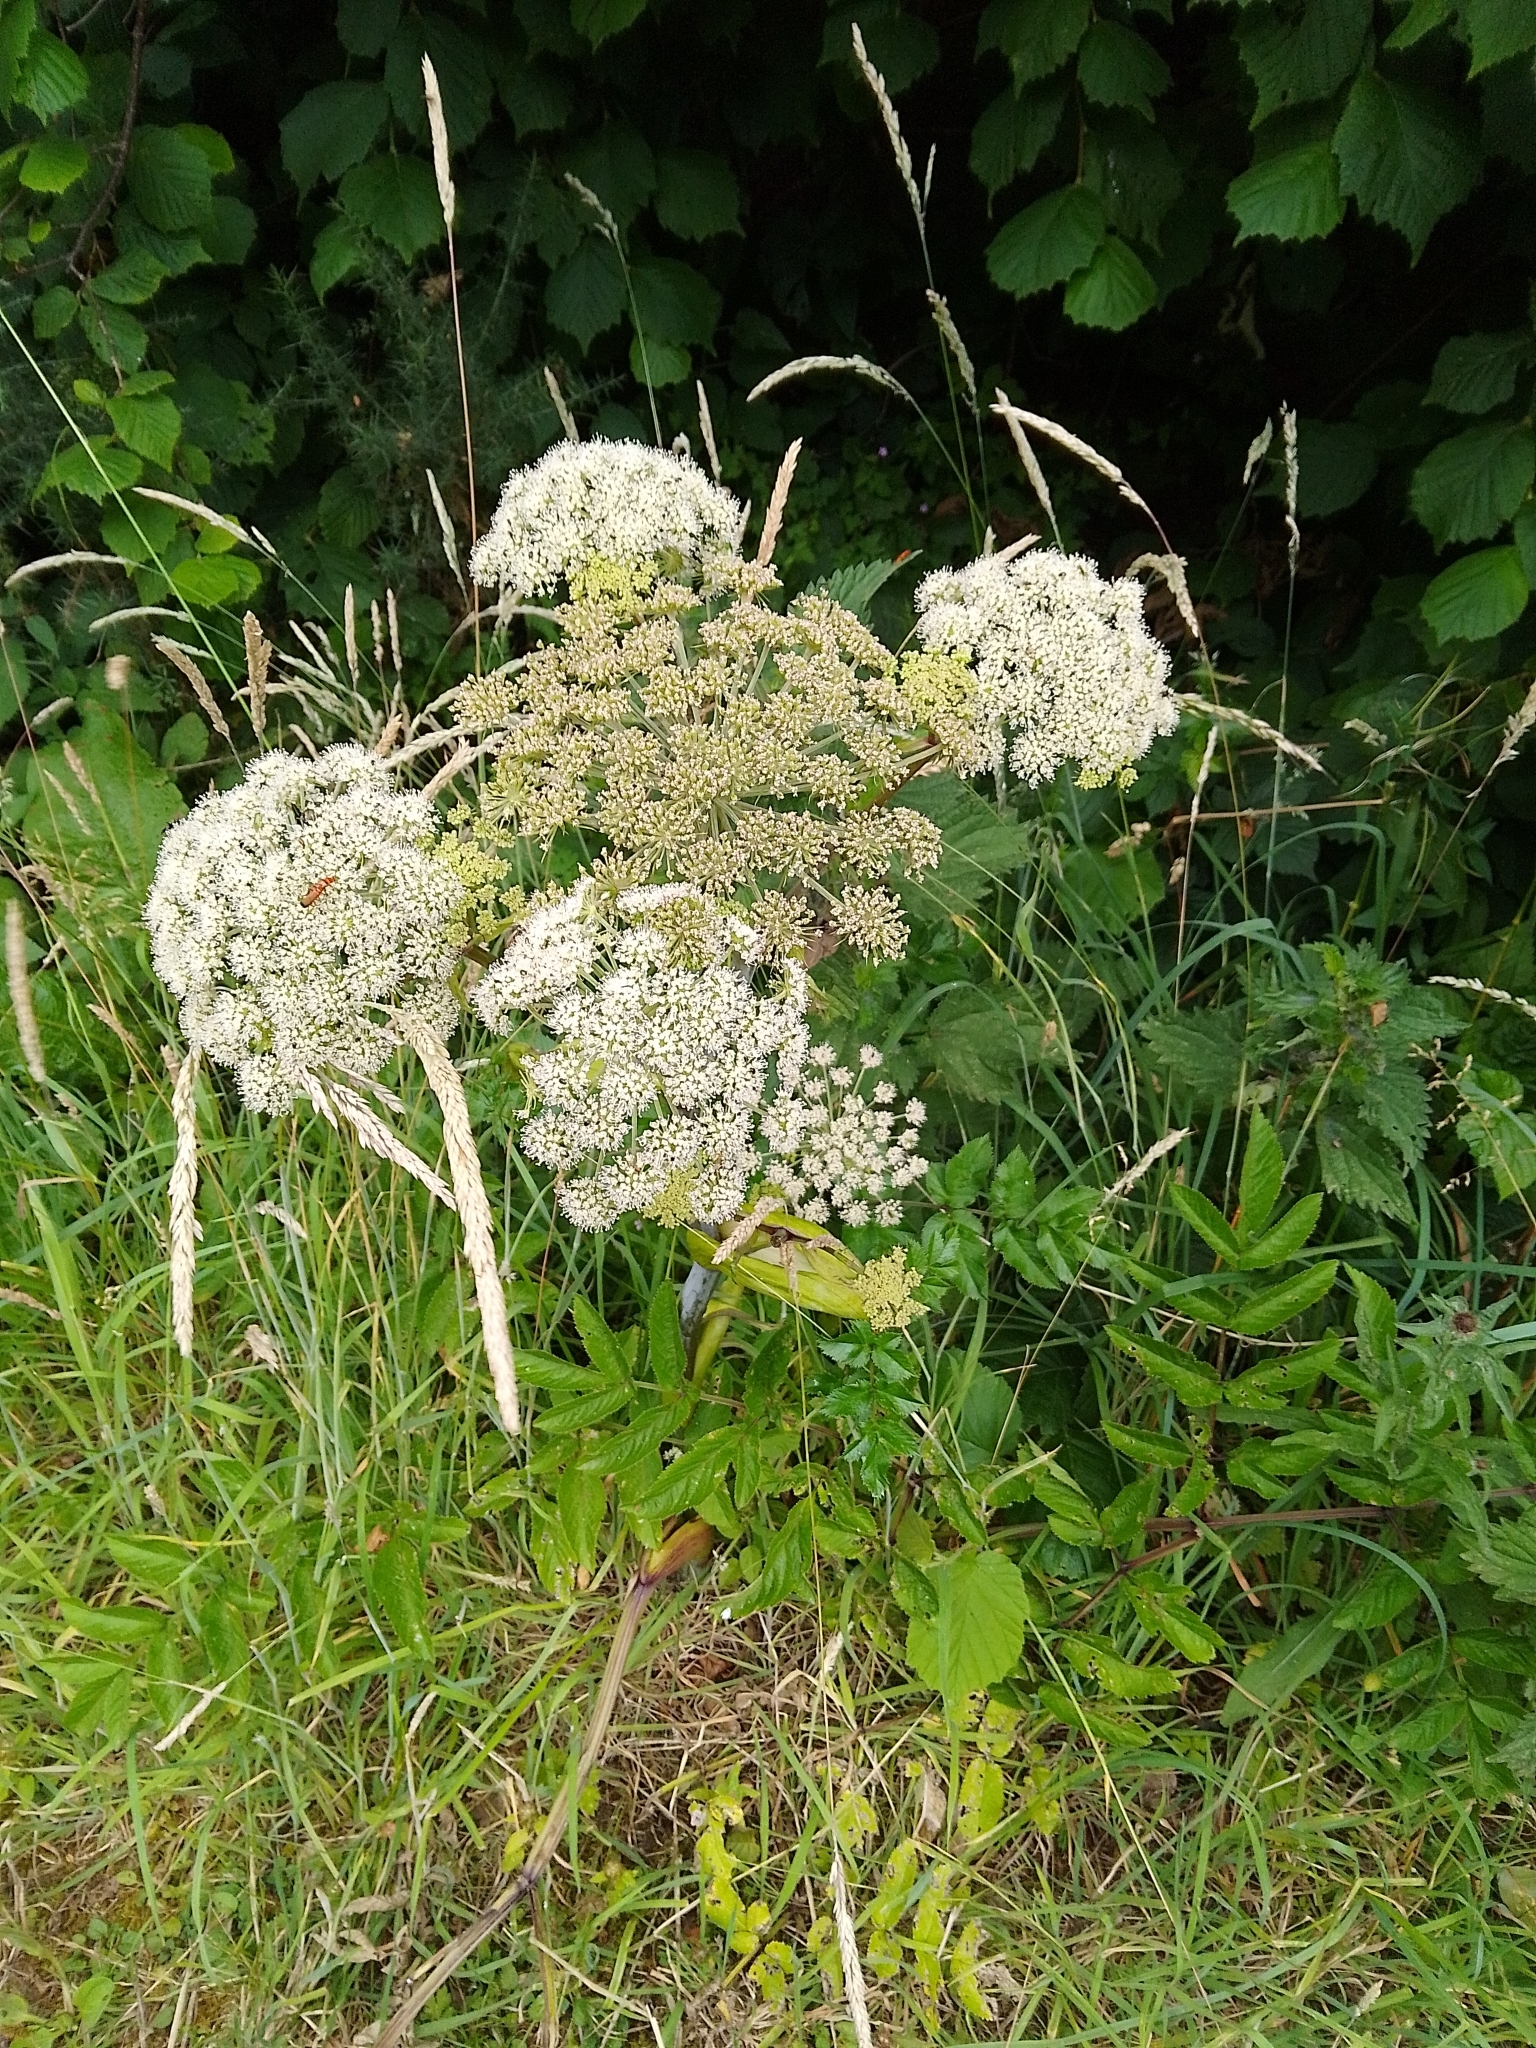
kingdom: Plantae
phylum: Tracheophyta
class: Magnoliopsida
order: Apiales
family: Apiaceae
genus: Angelica
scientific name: Angelica sylvestris
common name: Wild angelica
